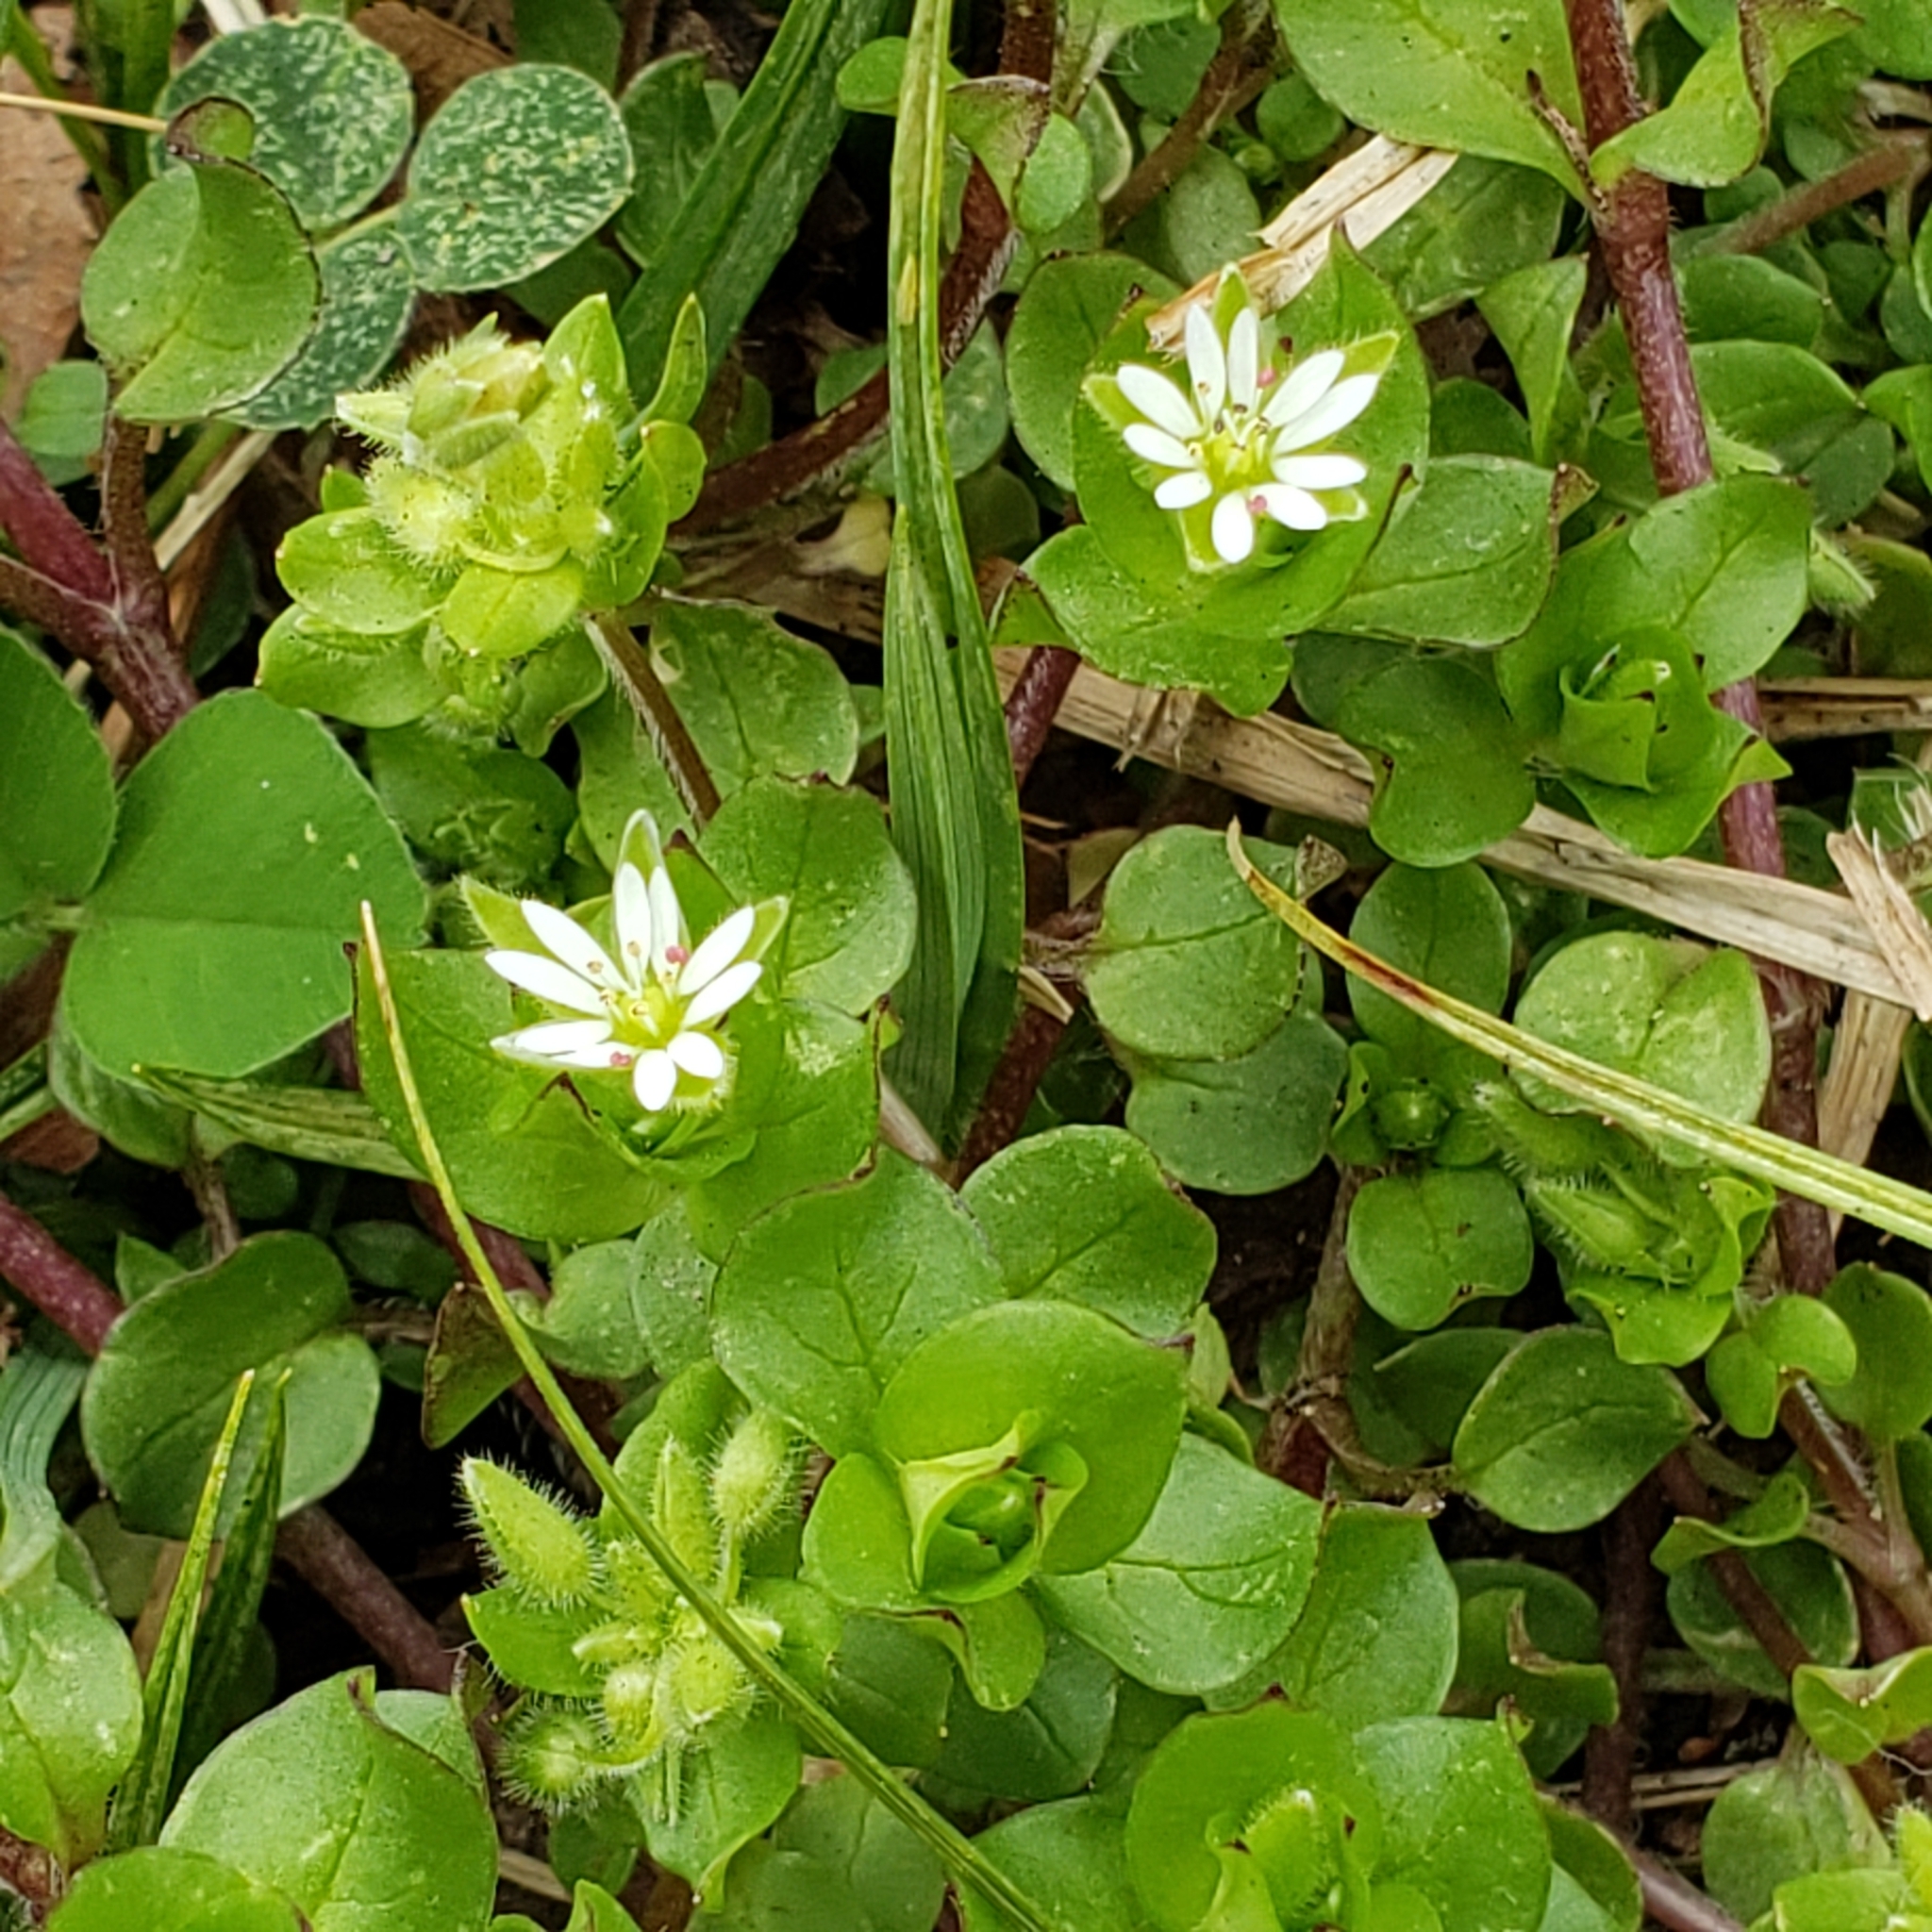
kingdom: Plantae
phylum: Tracheophyta
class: Magnoliopsida
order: Caryophyllales
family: Caryophyllaceae
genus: Stellaria
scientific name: Stellaria media
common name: Common chickweed
